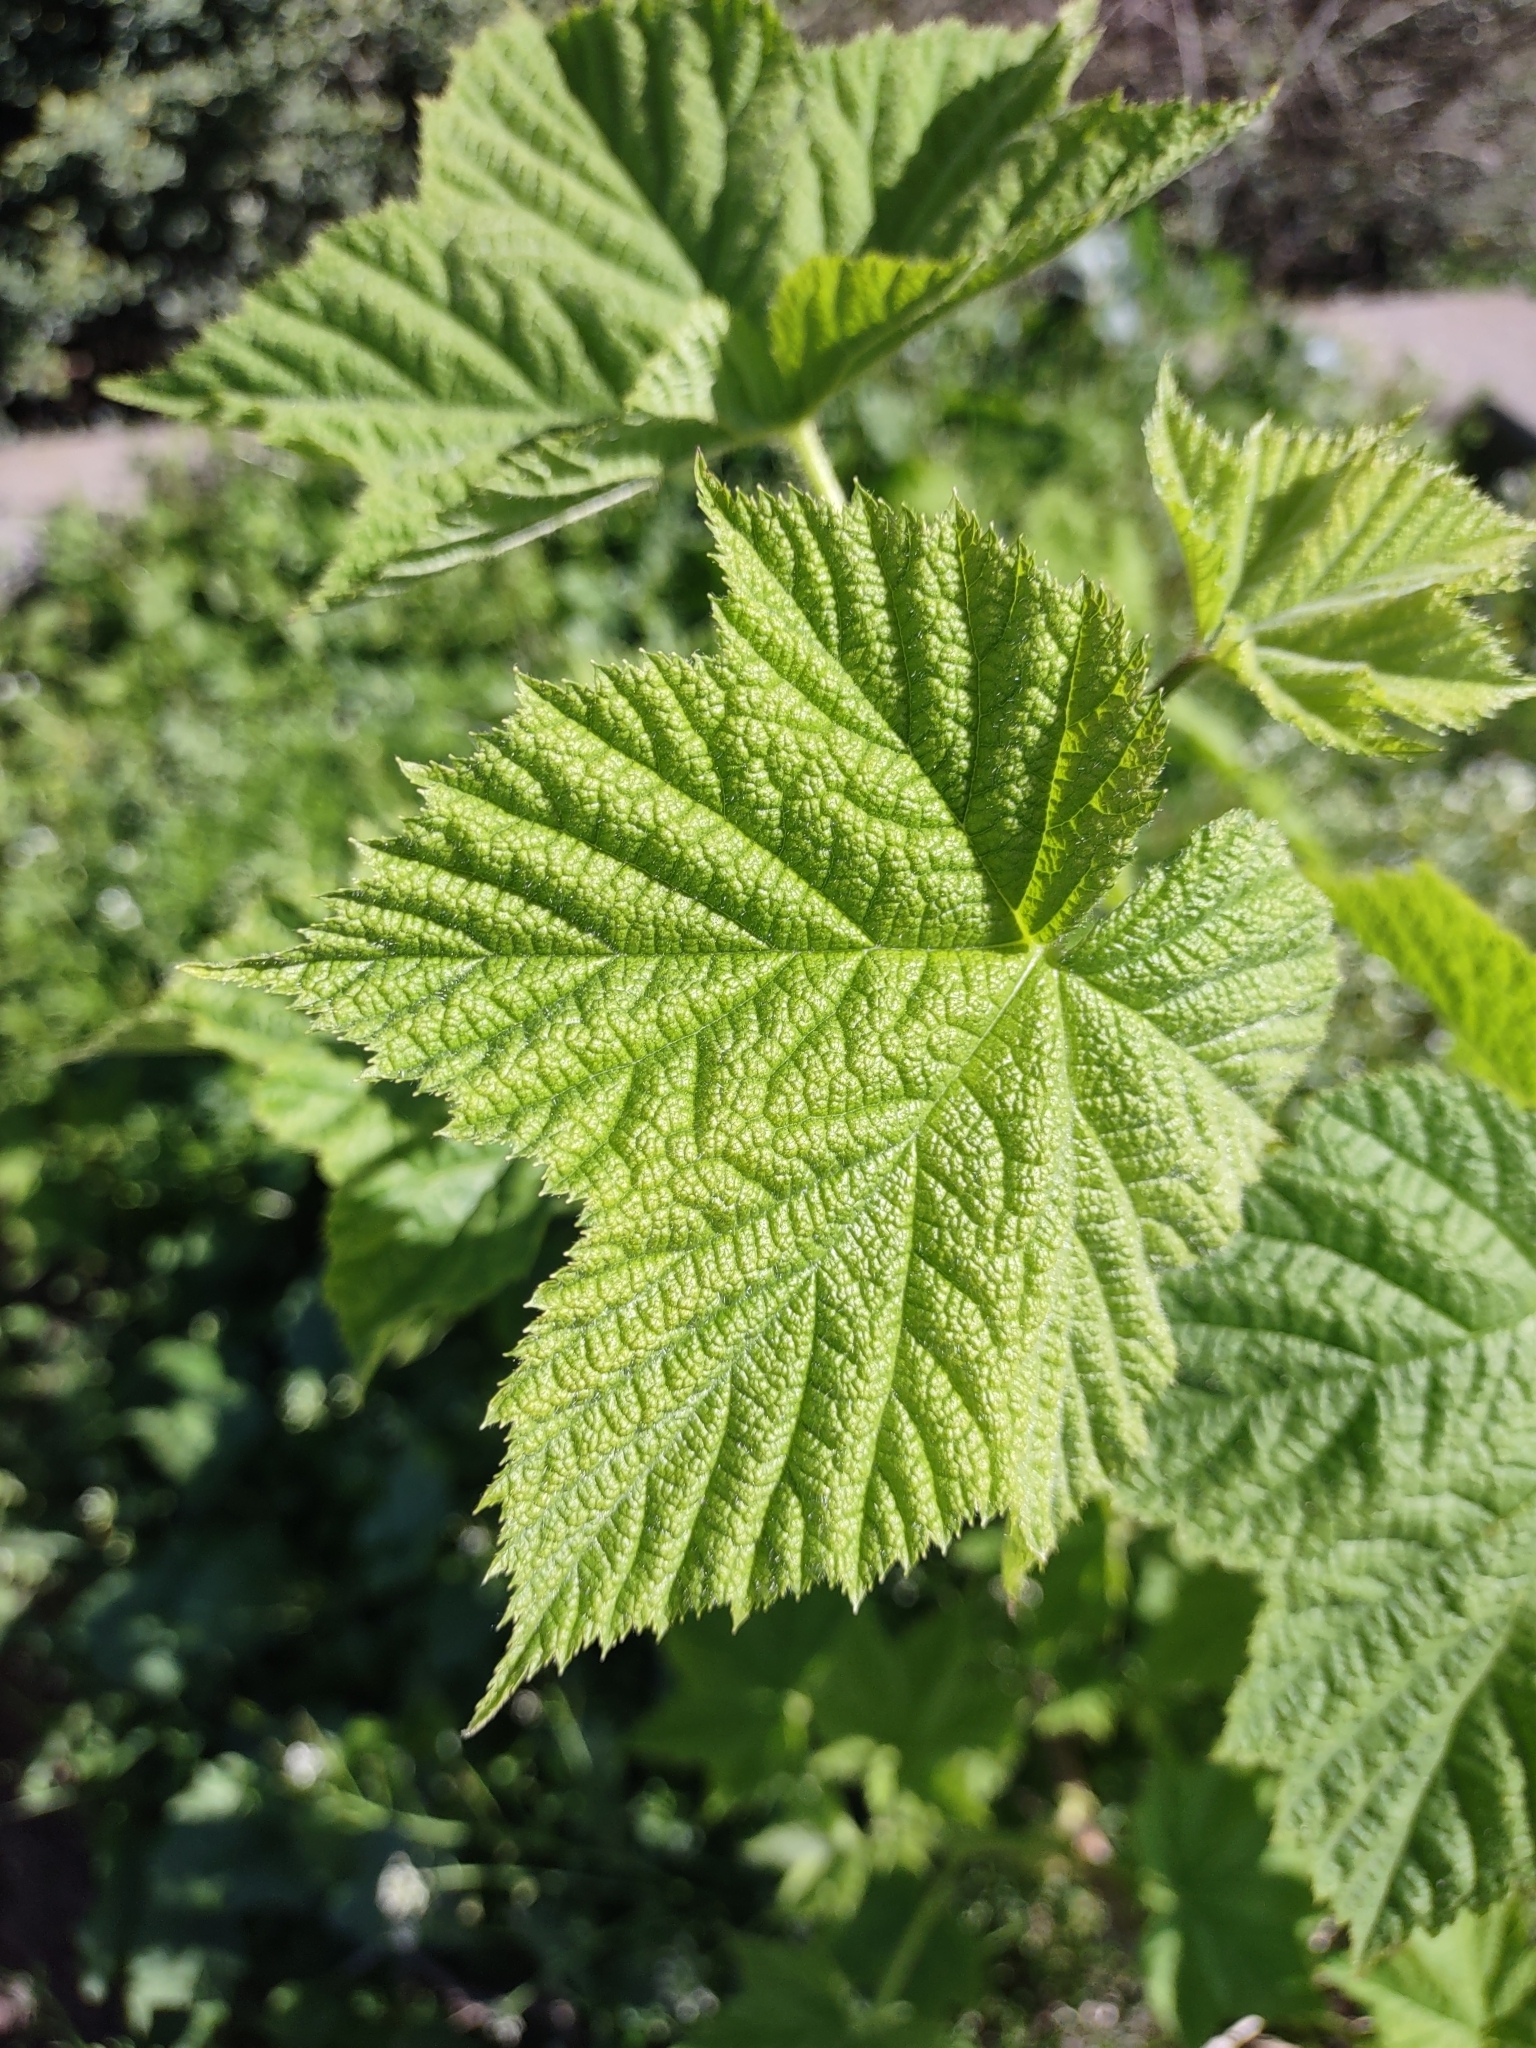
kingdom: Plantae
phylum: Tracheophyta
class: Magnoliopsida
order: Rosales
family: Rosaceae
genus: Rubus
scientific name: Rubus parviflorus
